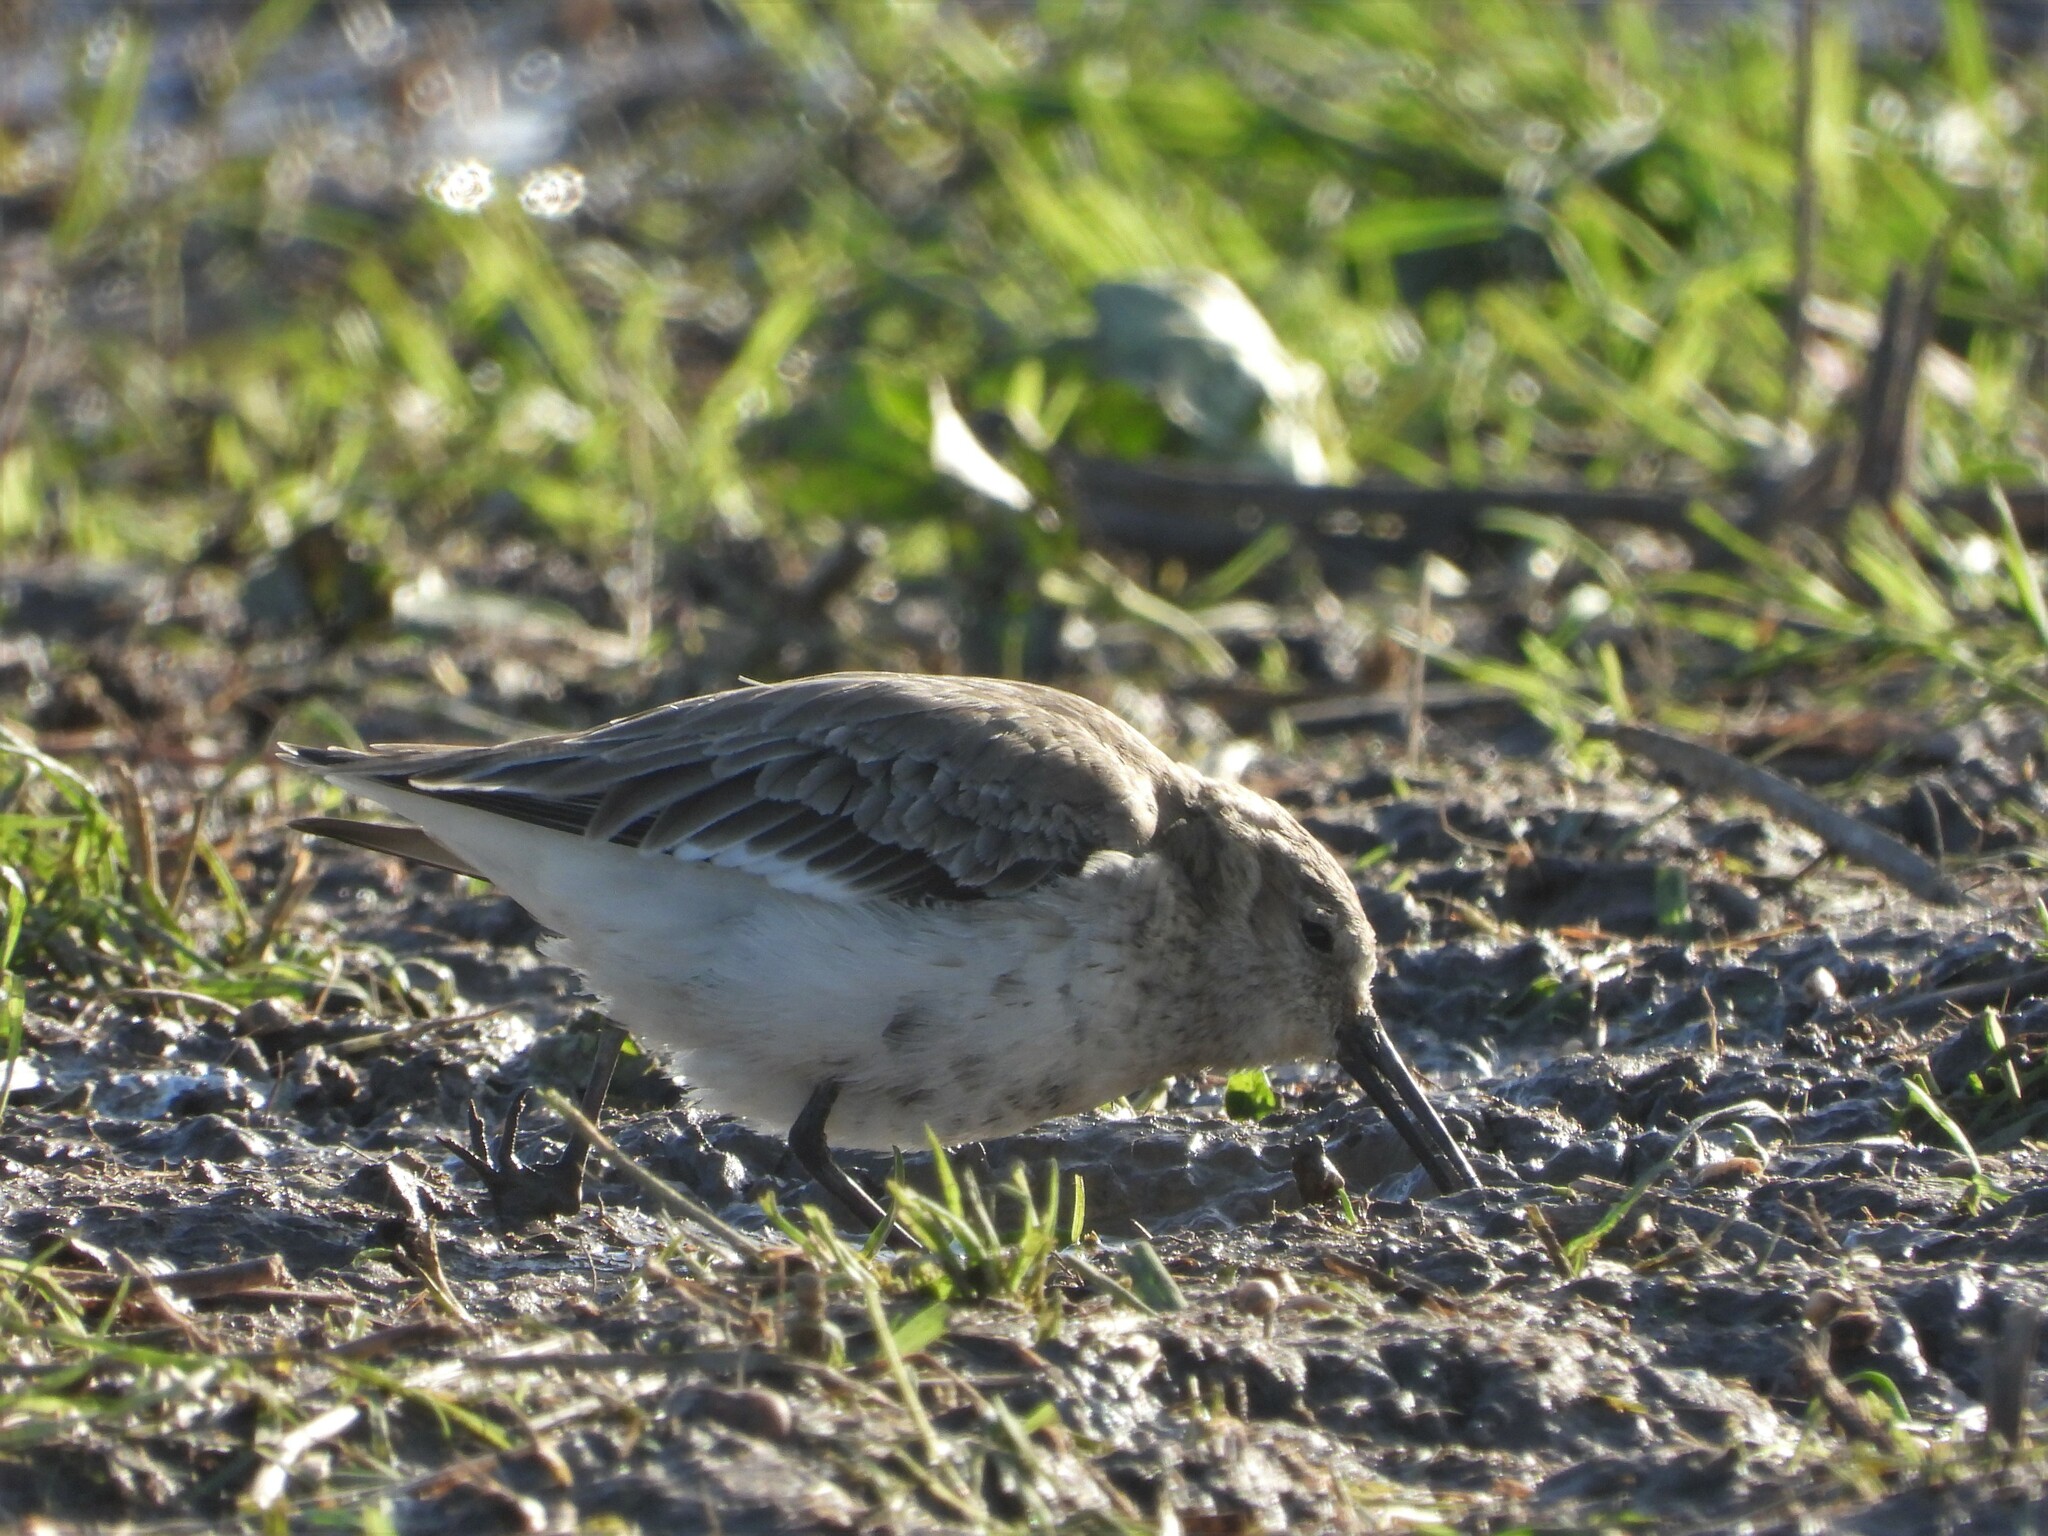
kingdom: Animalia
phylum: Chordata
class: Aves
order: Charadriiformes
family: Scolopacidae
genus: Calidris
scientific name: Calidris alpina
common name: Dunlin
